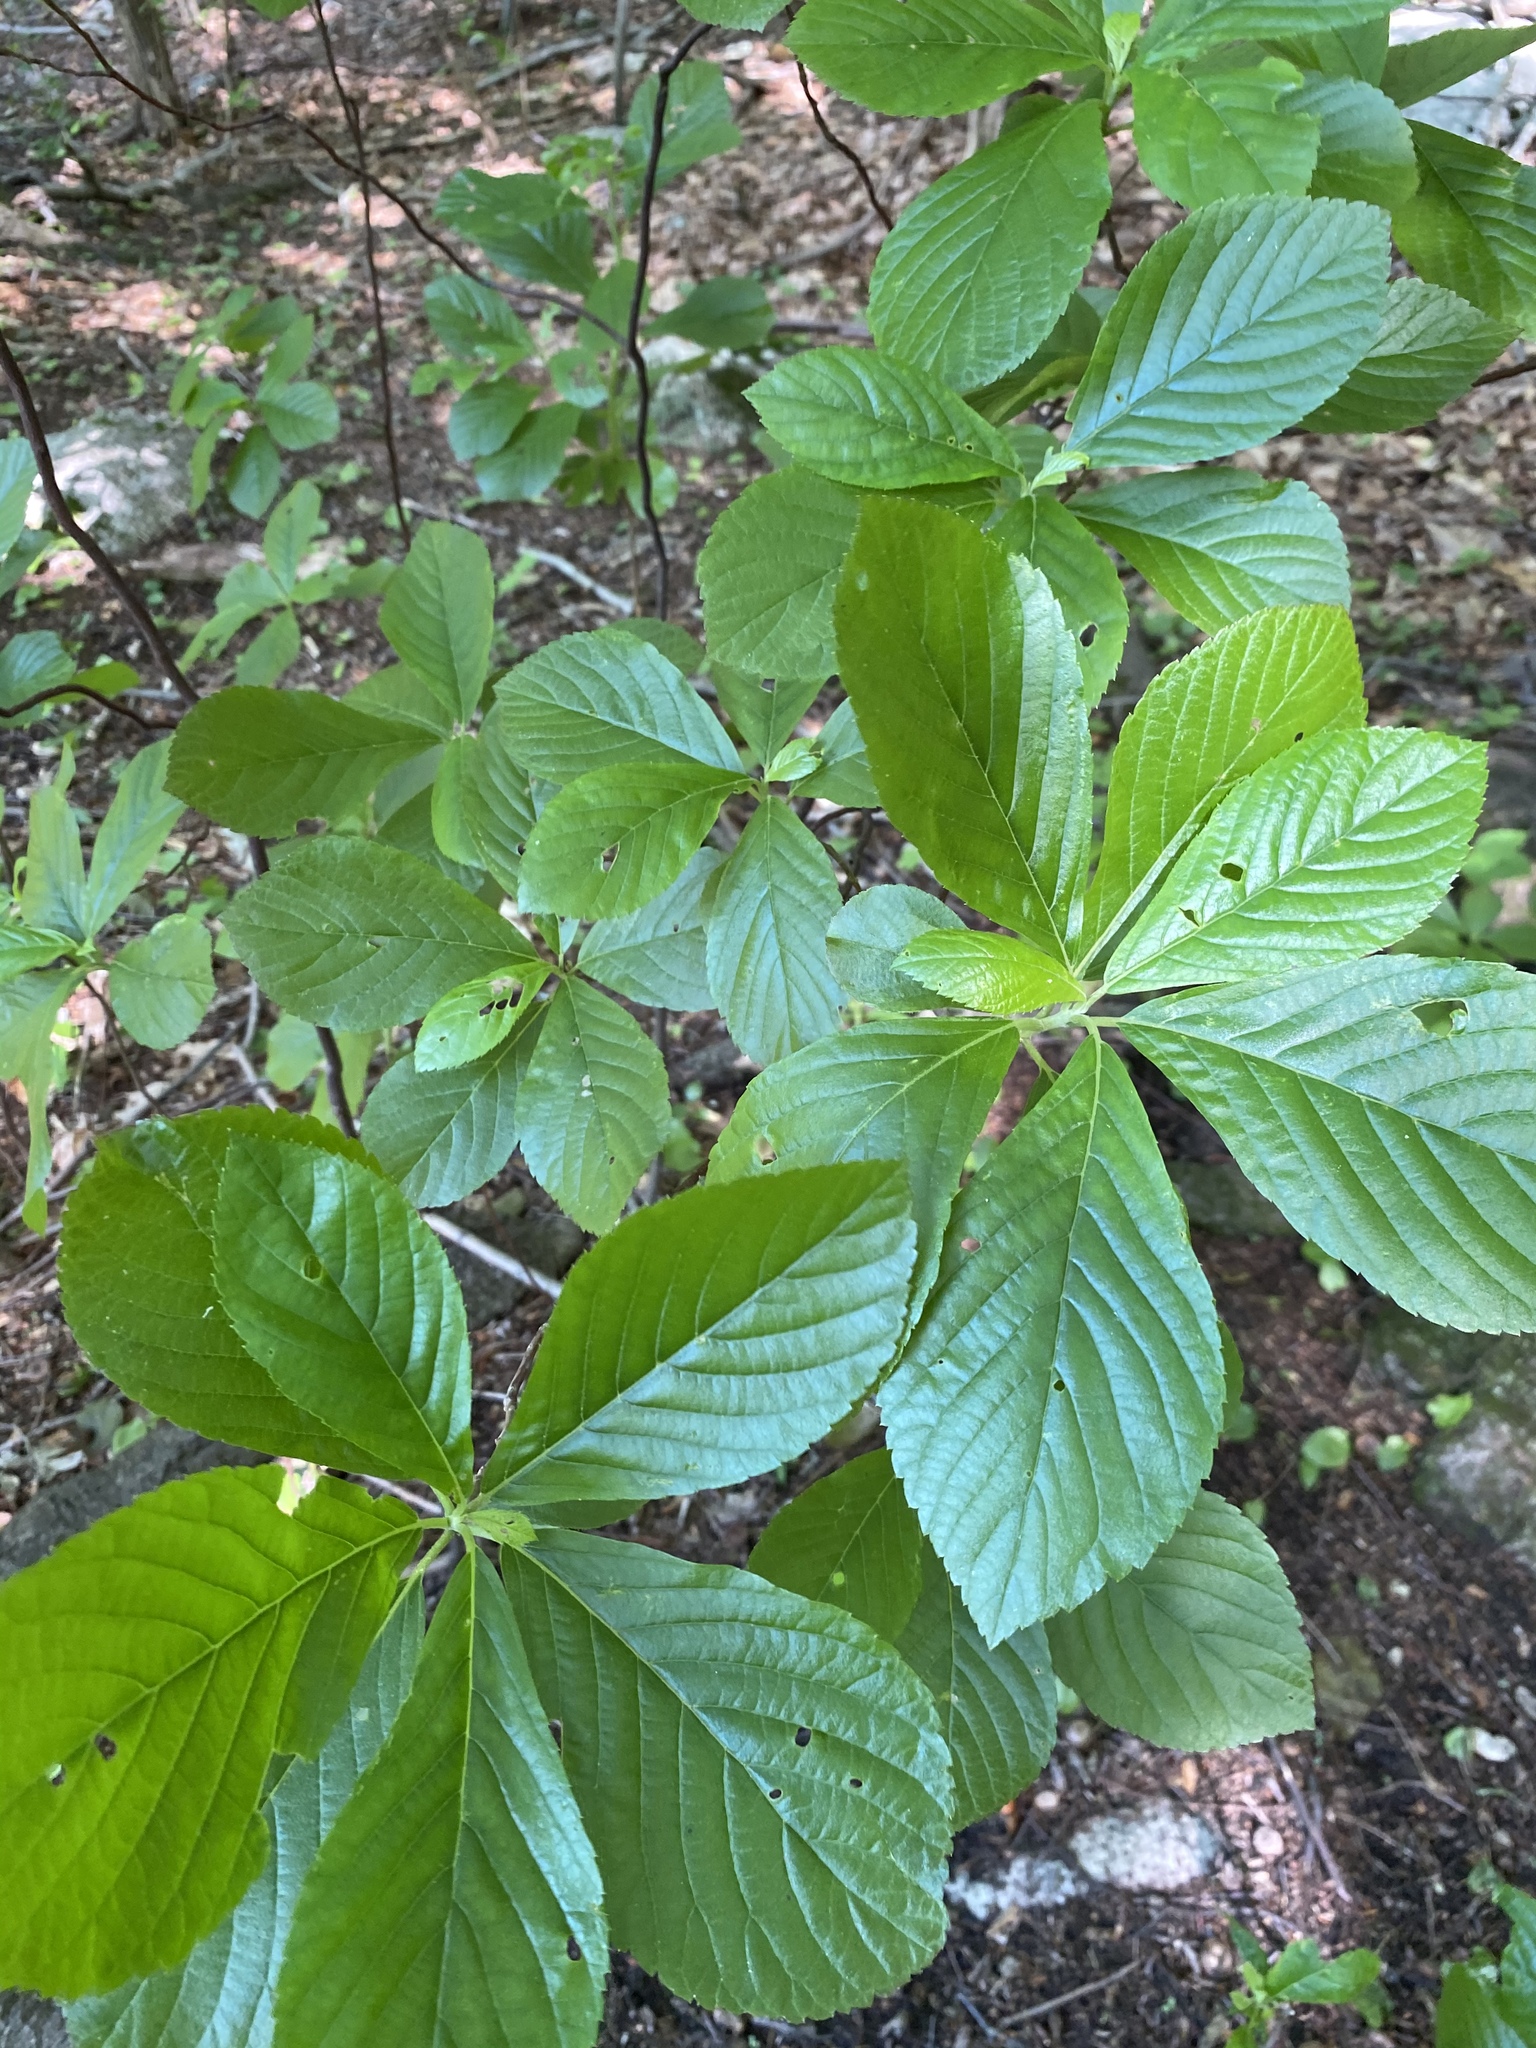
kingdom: Plantae
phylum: Tracheophyta
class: Magnoliopsida
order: Ericales
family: Clethraceae
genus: Clethra
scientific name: Clethra alnifolia
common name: Sweet pepperbush
